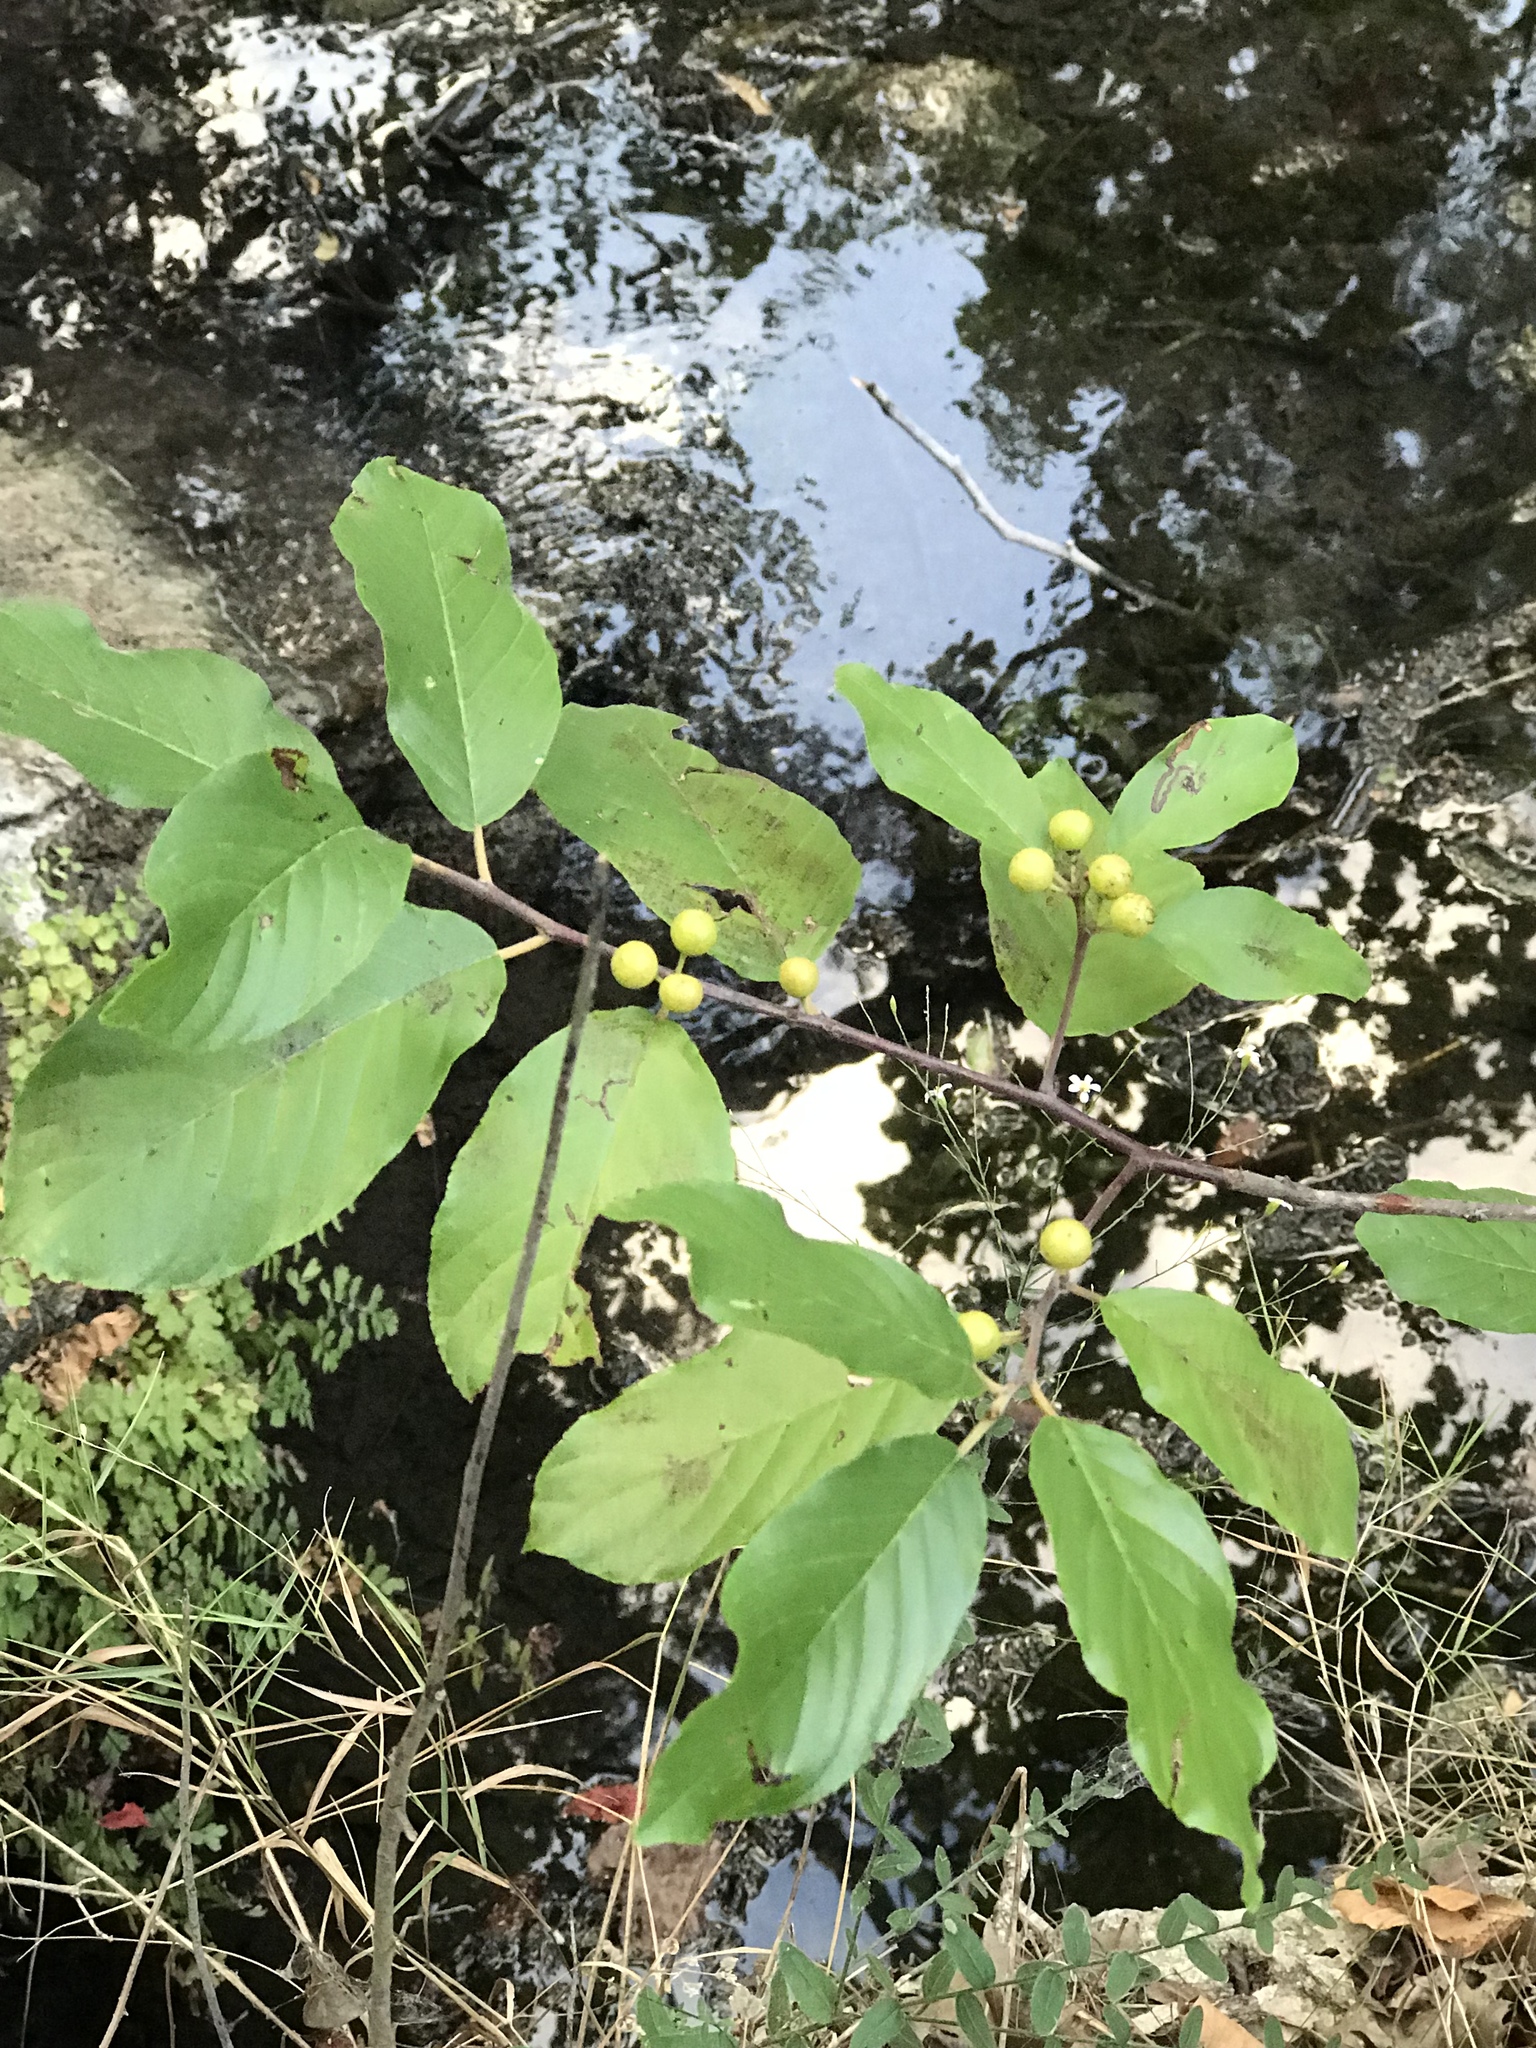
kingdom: Plantae
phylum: Tracheophyta
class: Magnoliopsida
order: Rosales
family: Rhamnaceae
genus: Frangula
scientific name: Frangula caroliniana
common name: Carolina buckthorn
